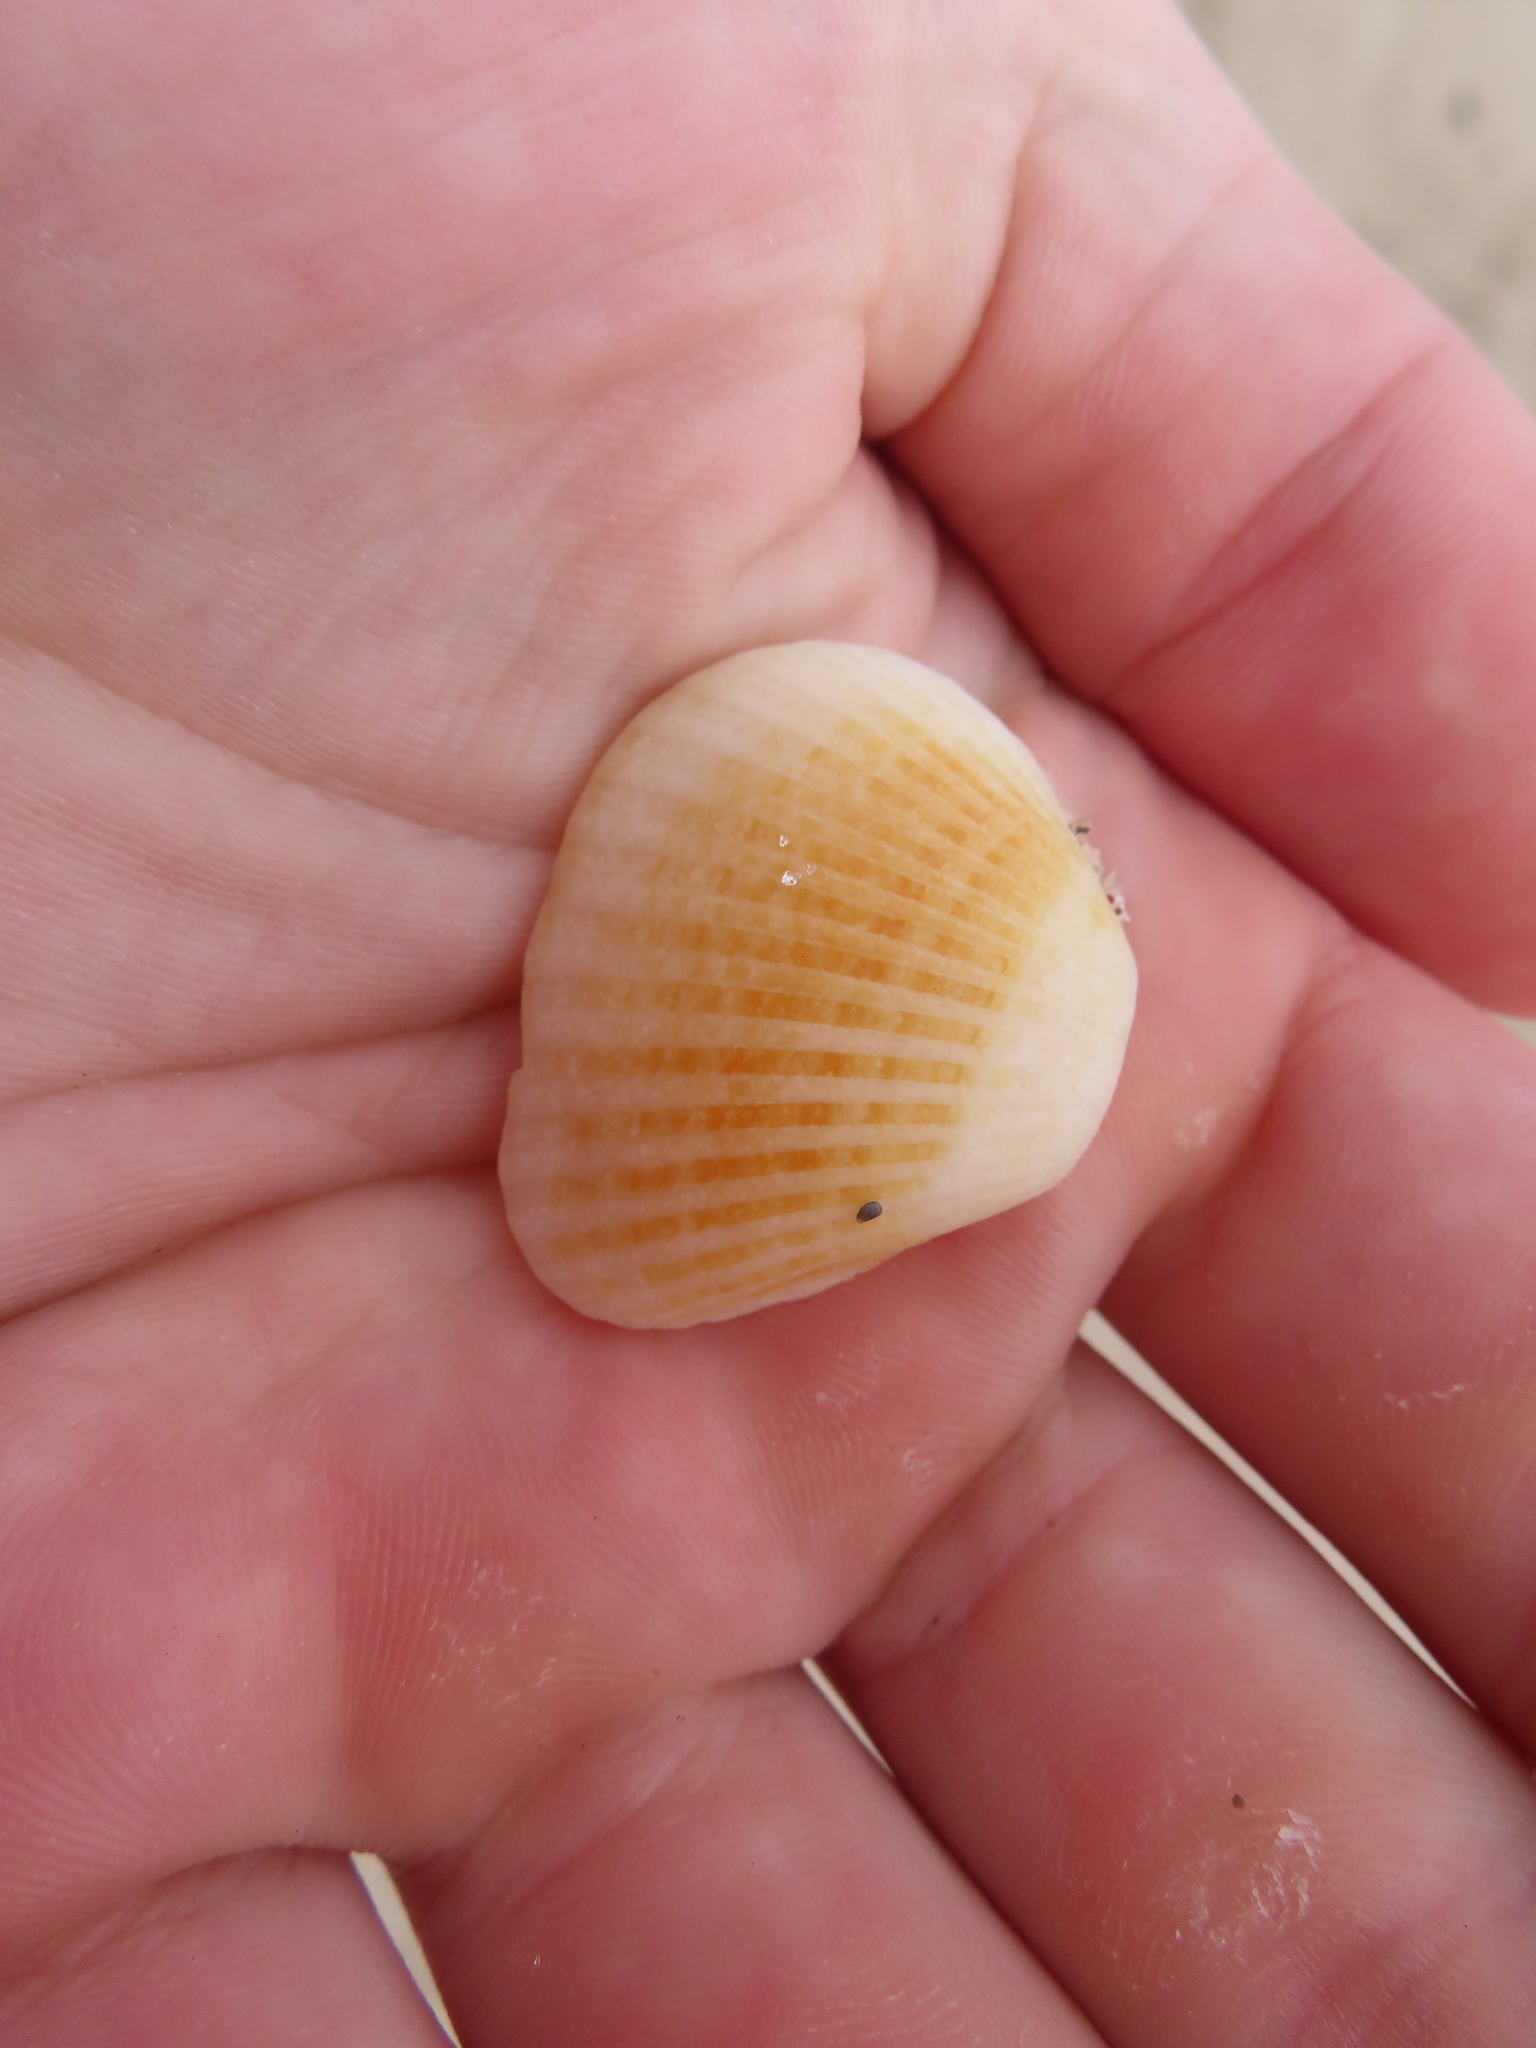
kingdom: Animalia
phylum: Mollusca
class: Bivalvia
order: Arcida
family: Noetiidae
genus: Noetia
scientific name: Noetia ponderosa
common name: Ponderous ark
